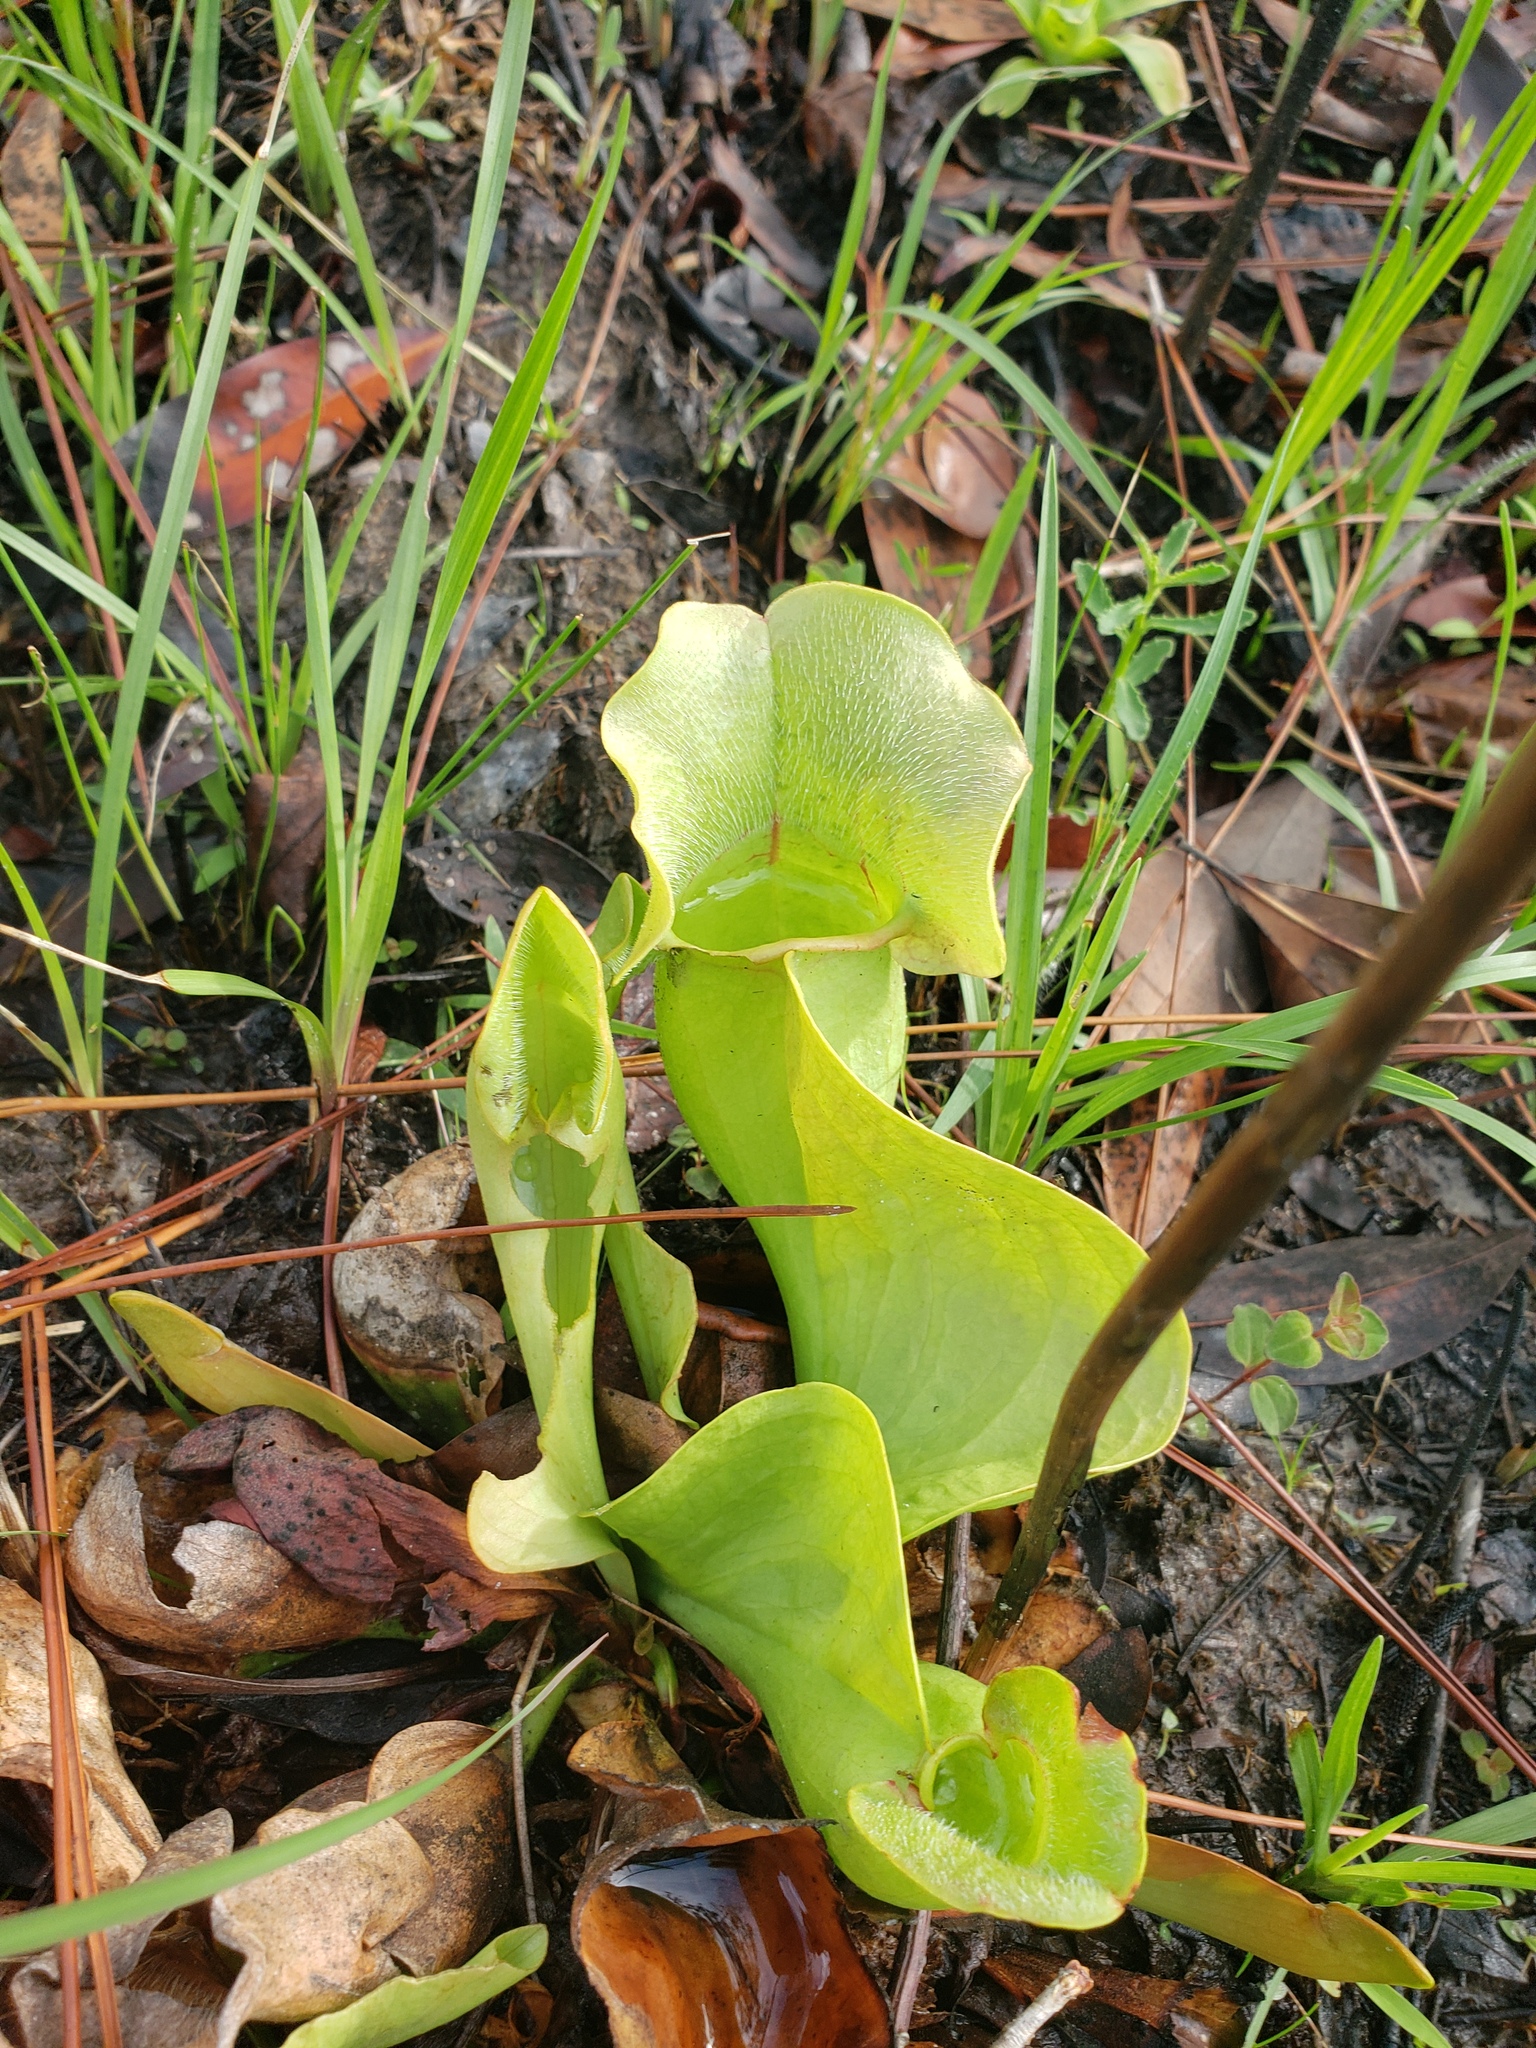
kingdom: Plantae
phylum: Tracheophyta
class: Magnoliopsida
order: Ericales
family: Sarraceniaceae
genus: Sarracenia
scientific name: Sarracenia rosea
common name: Pink pitcherplant
